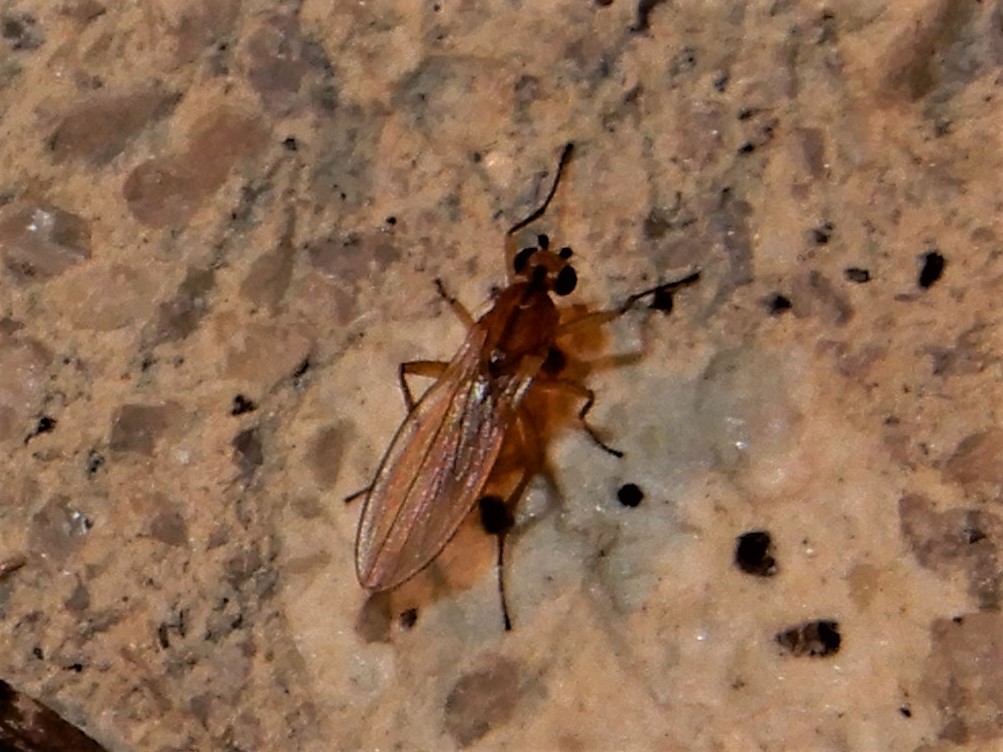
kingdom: Animalia
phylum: Arthropoda
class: Insecta
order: Diptera
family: Lonchopteridae
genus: Lonchoptera
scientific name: Lonchoptera bifurcata
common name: Spear-winged fly
